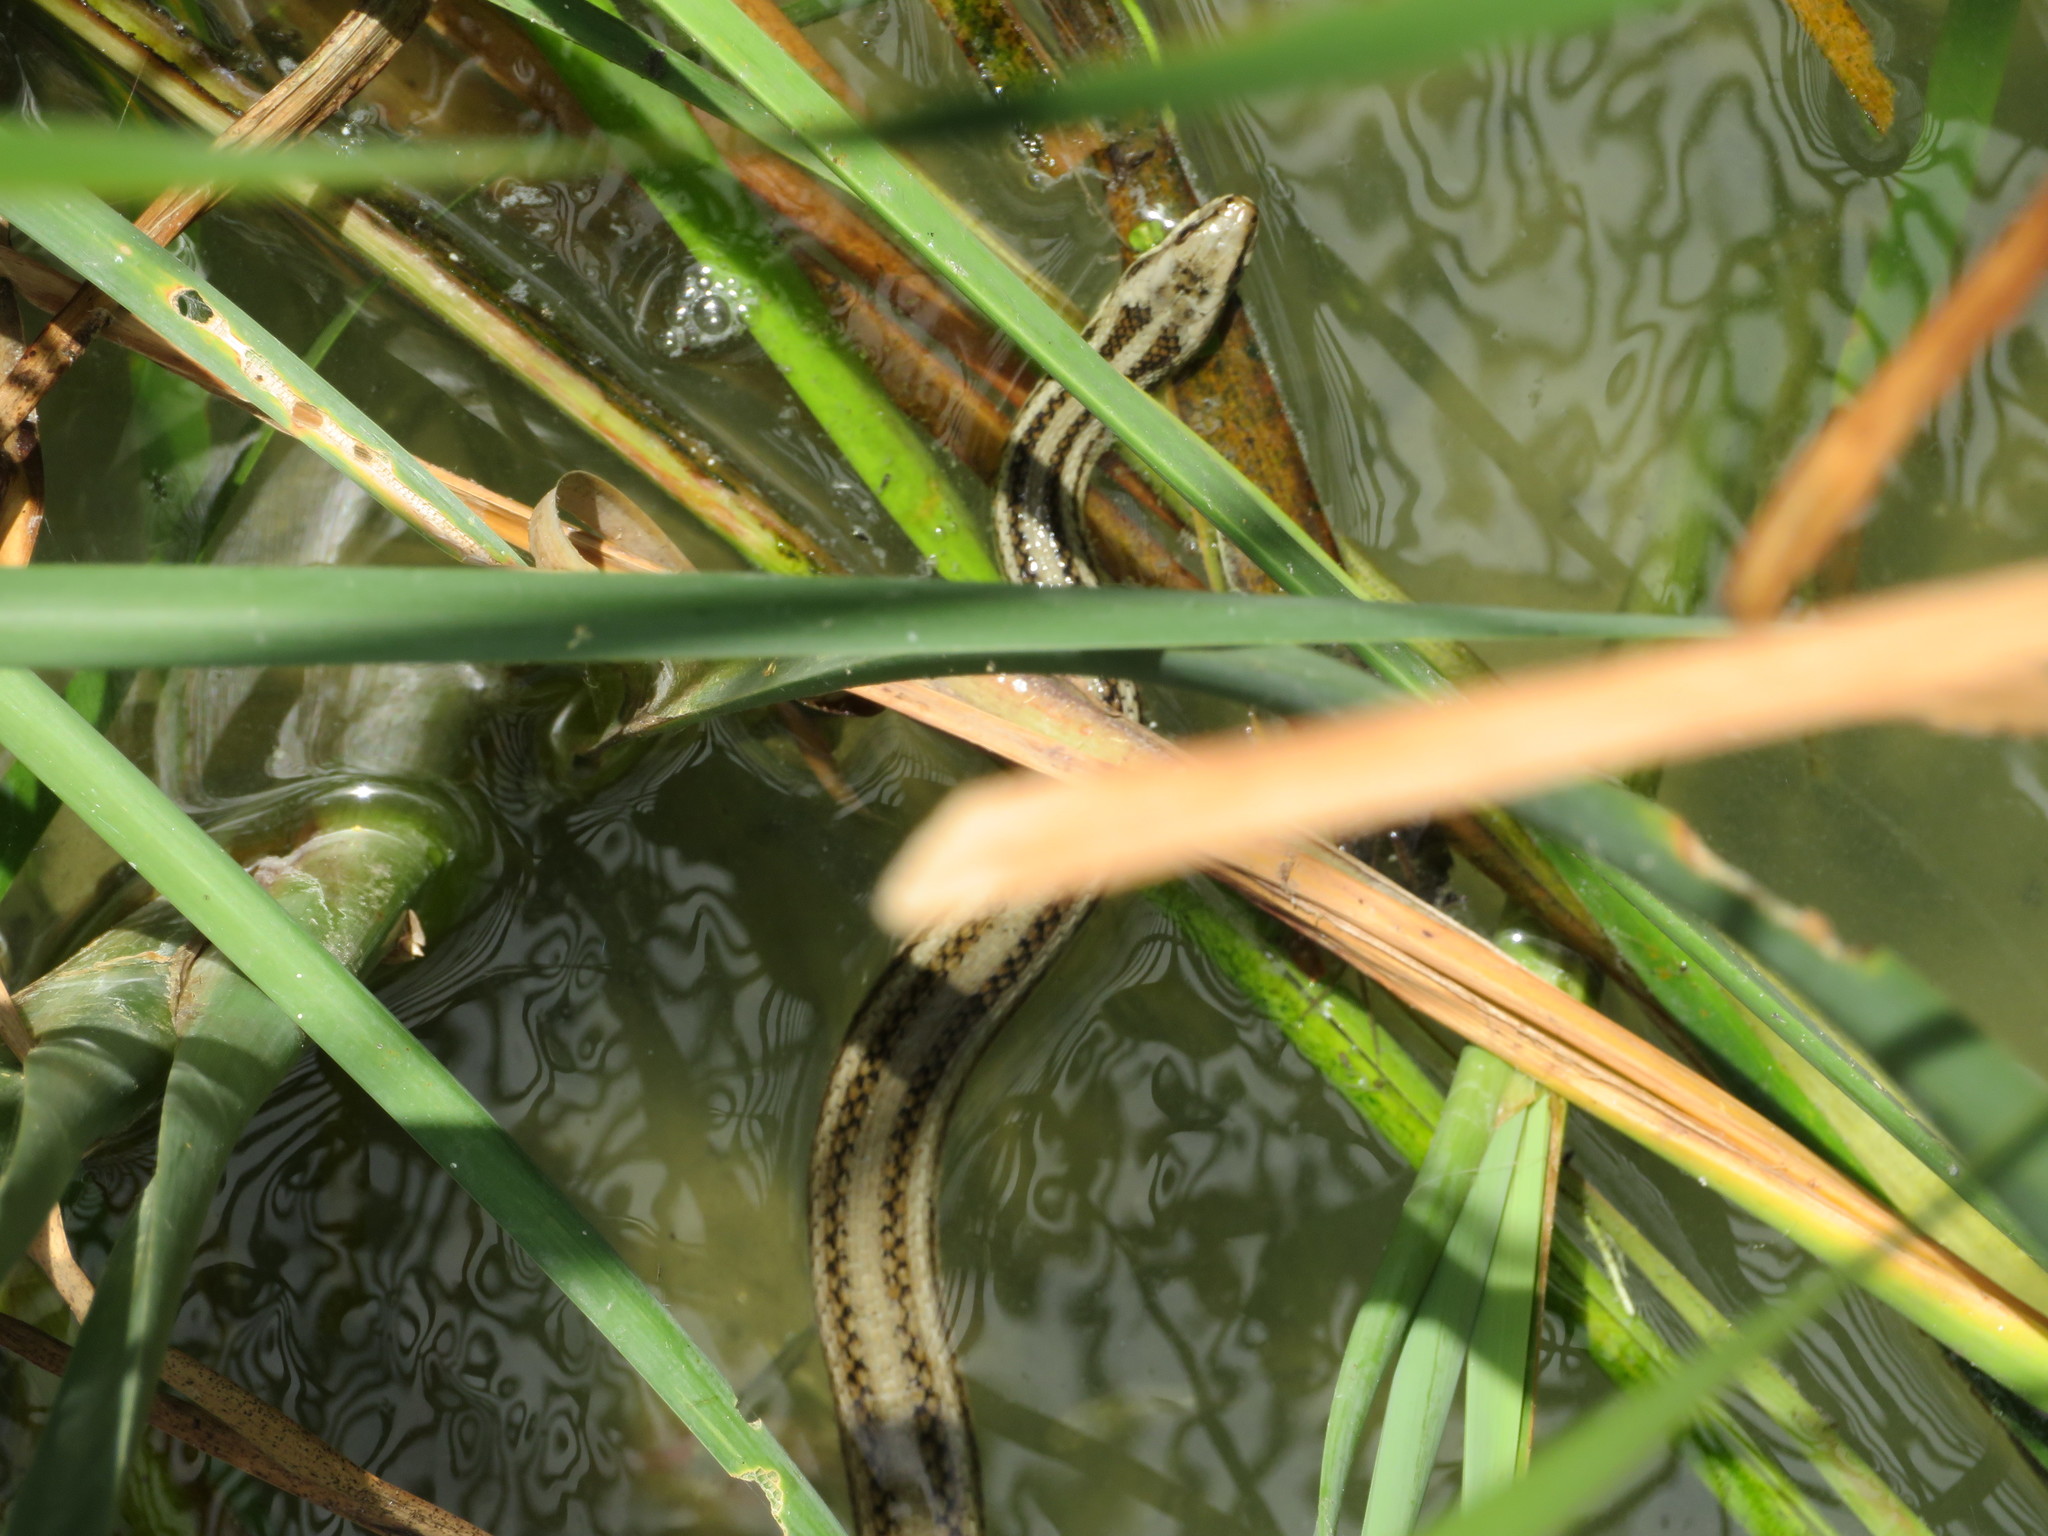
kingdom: Animalia
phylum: Chordata
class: Squamata
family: Colubridae
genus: Nerodia
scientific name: Nerodia clarkii
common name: Atlantic saltmarsh snake
